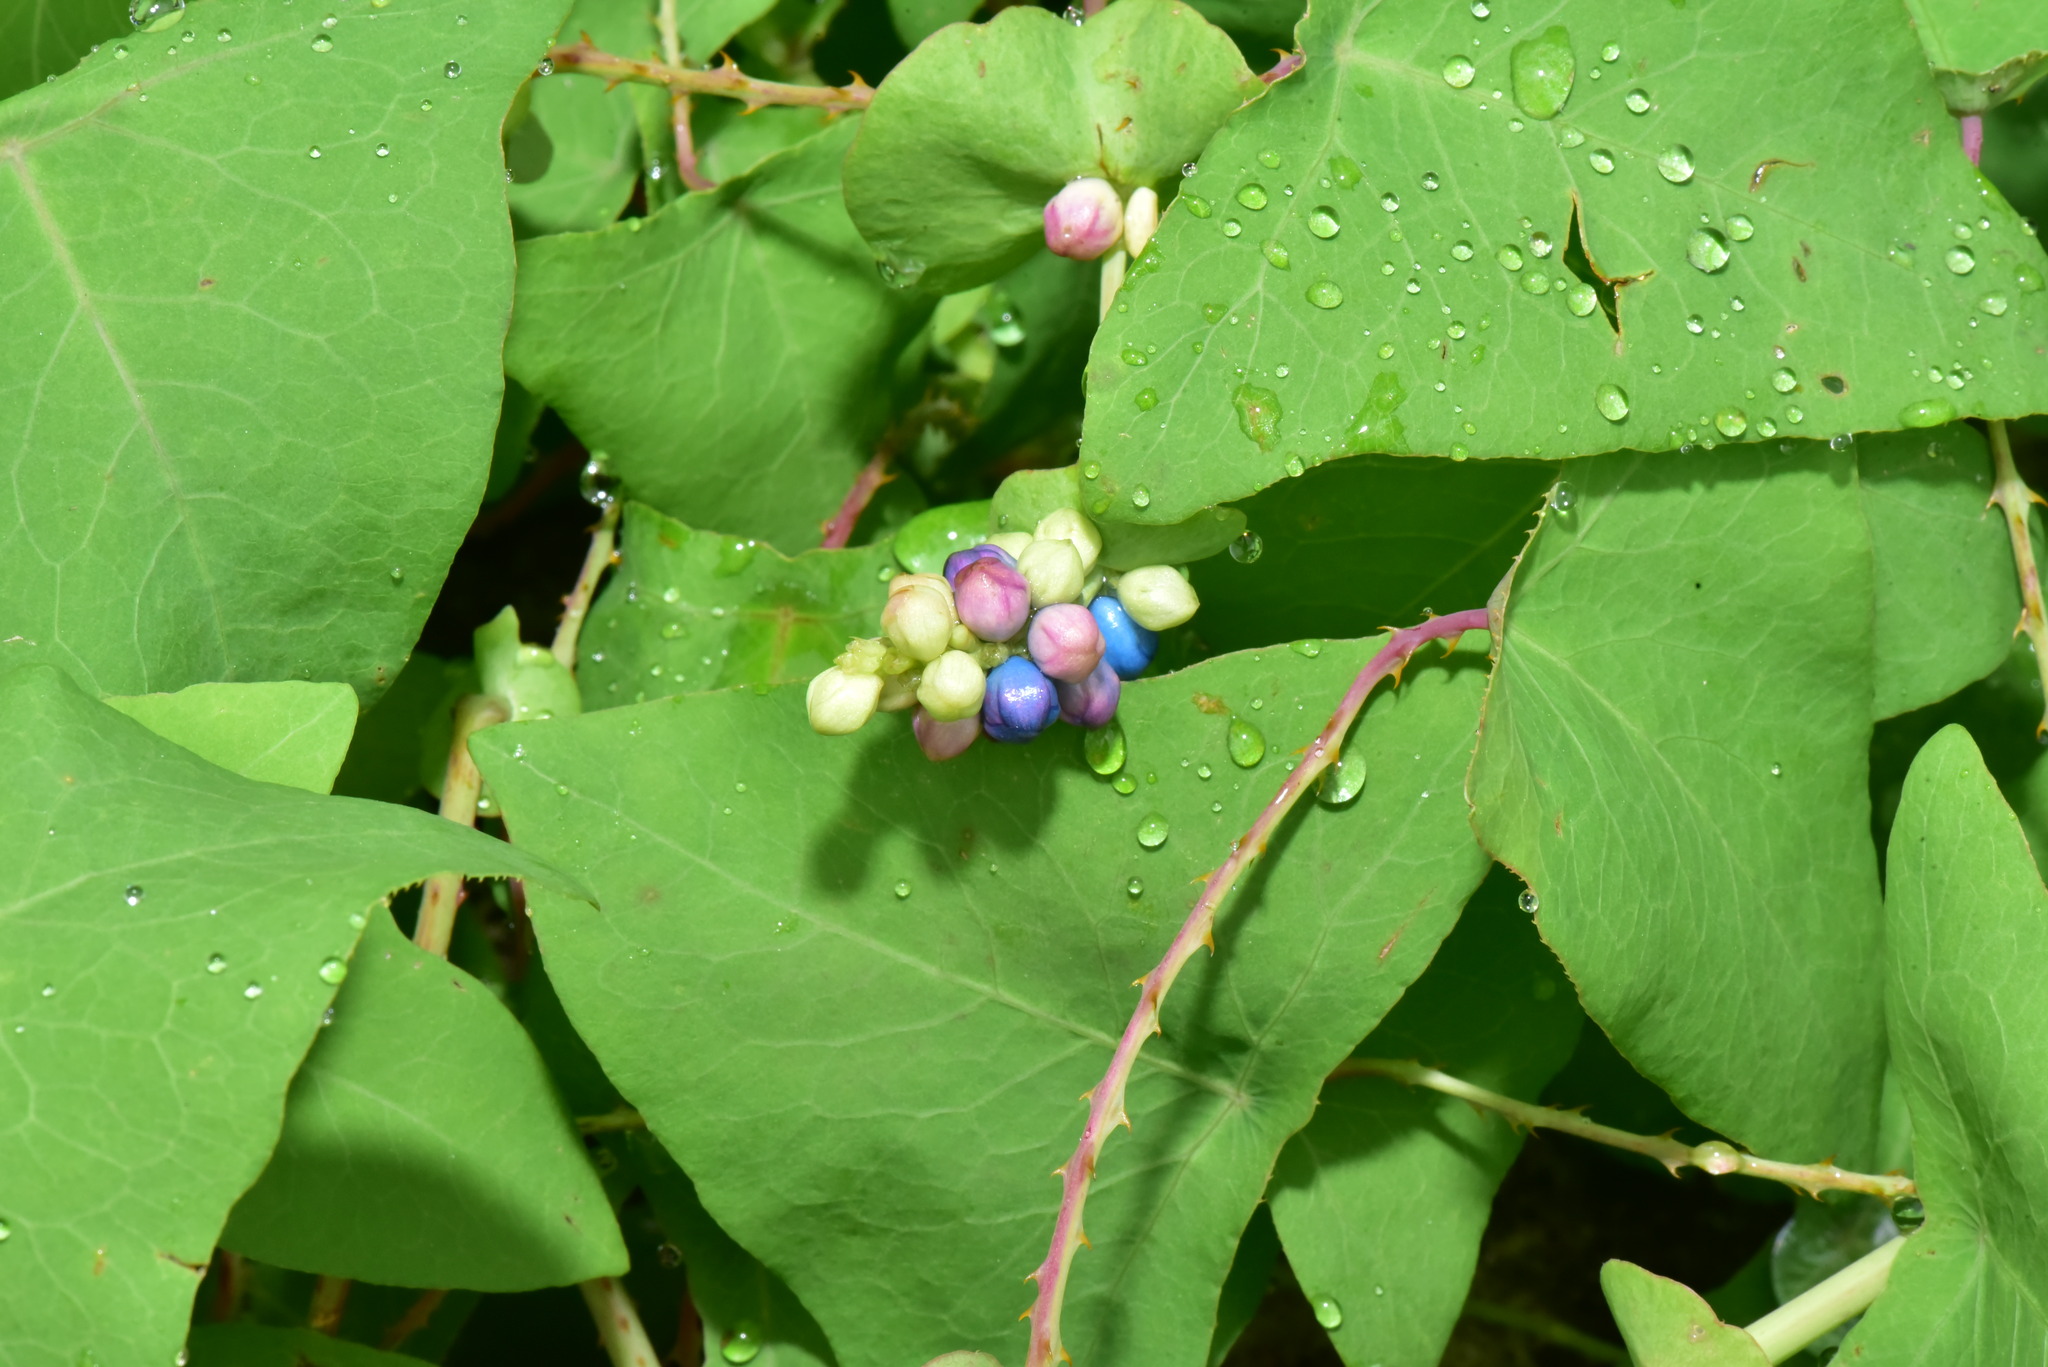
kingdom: Plantae
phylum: Tracheophyta
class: Magnoliopsida
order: Caryophyllales
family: Polygonaceae
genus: Persicaria
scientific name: Persicaria perfoliata
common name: Asiatic tearthumb
